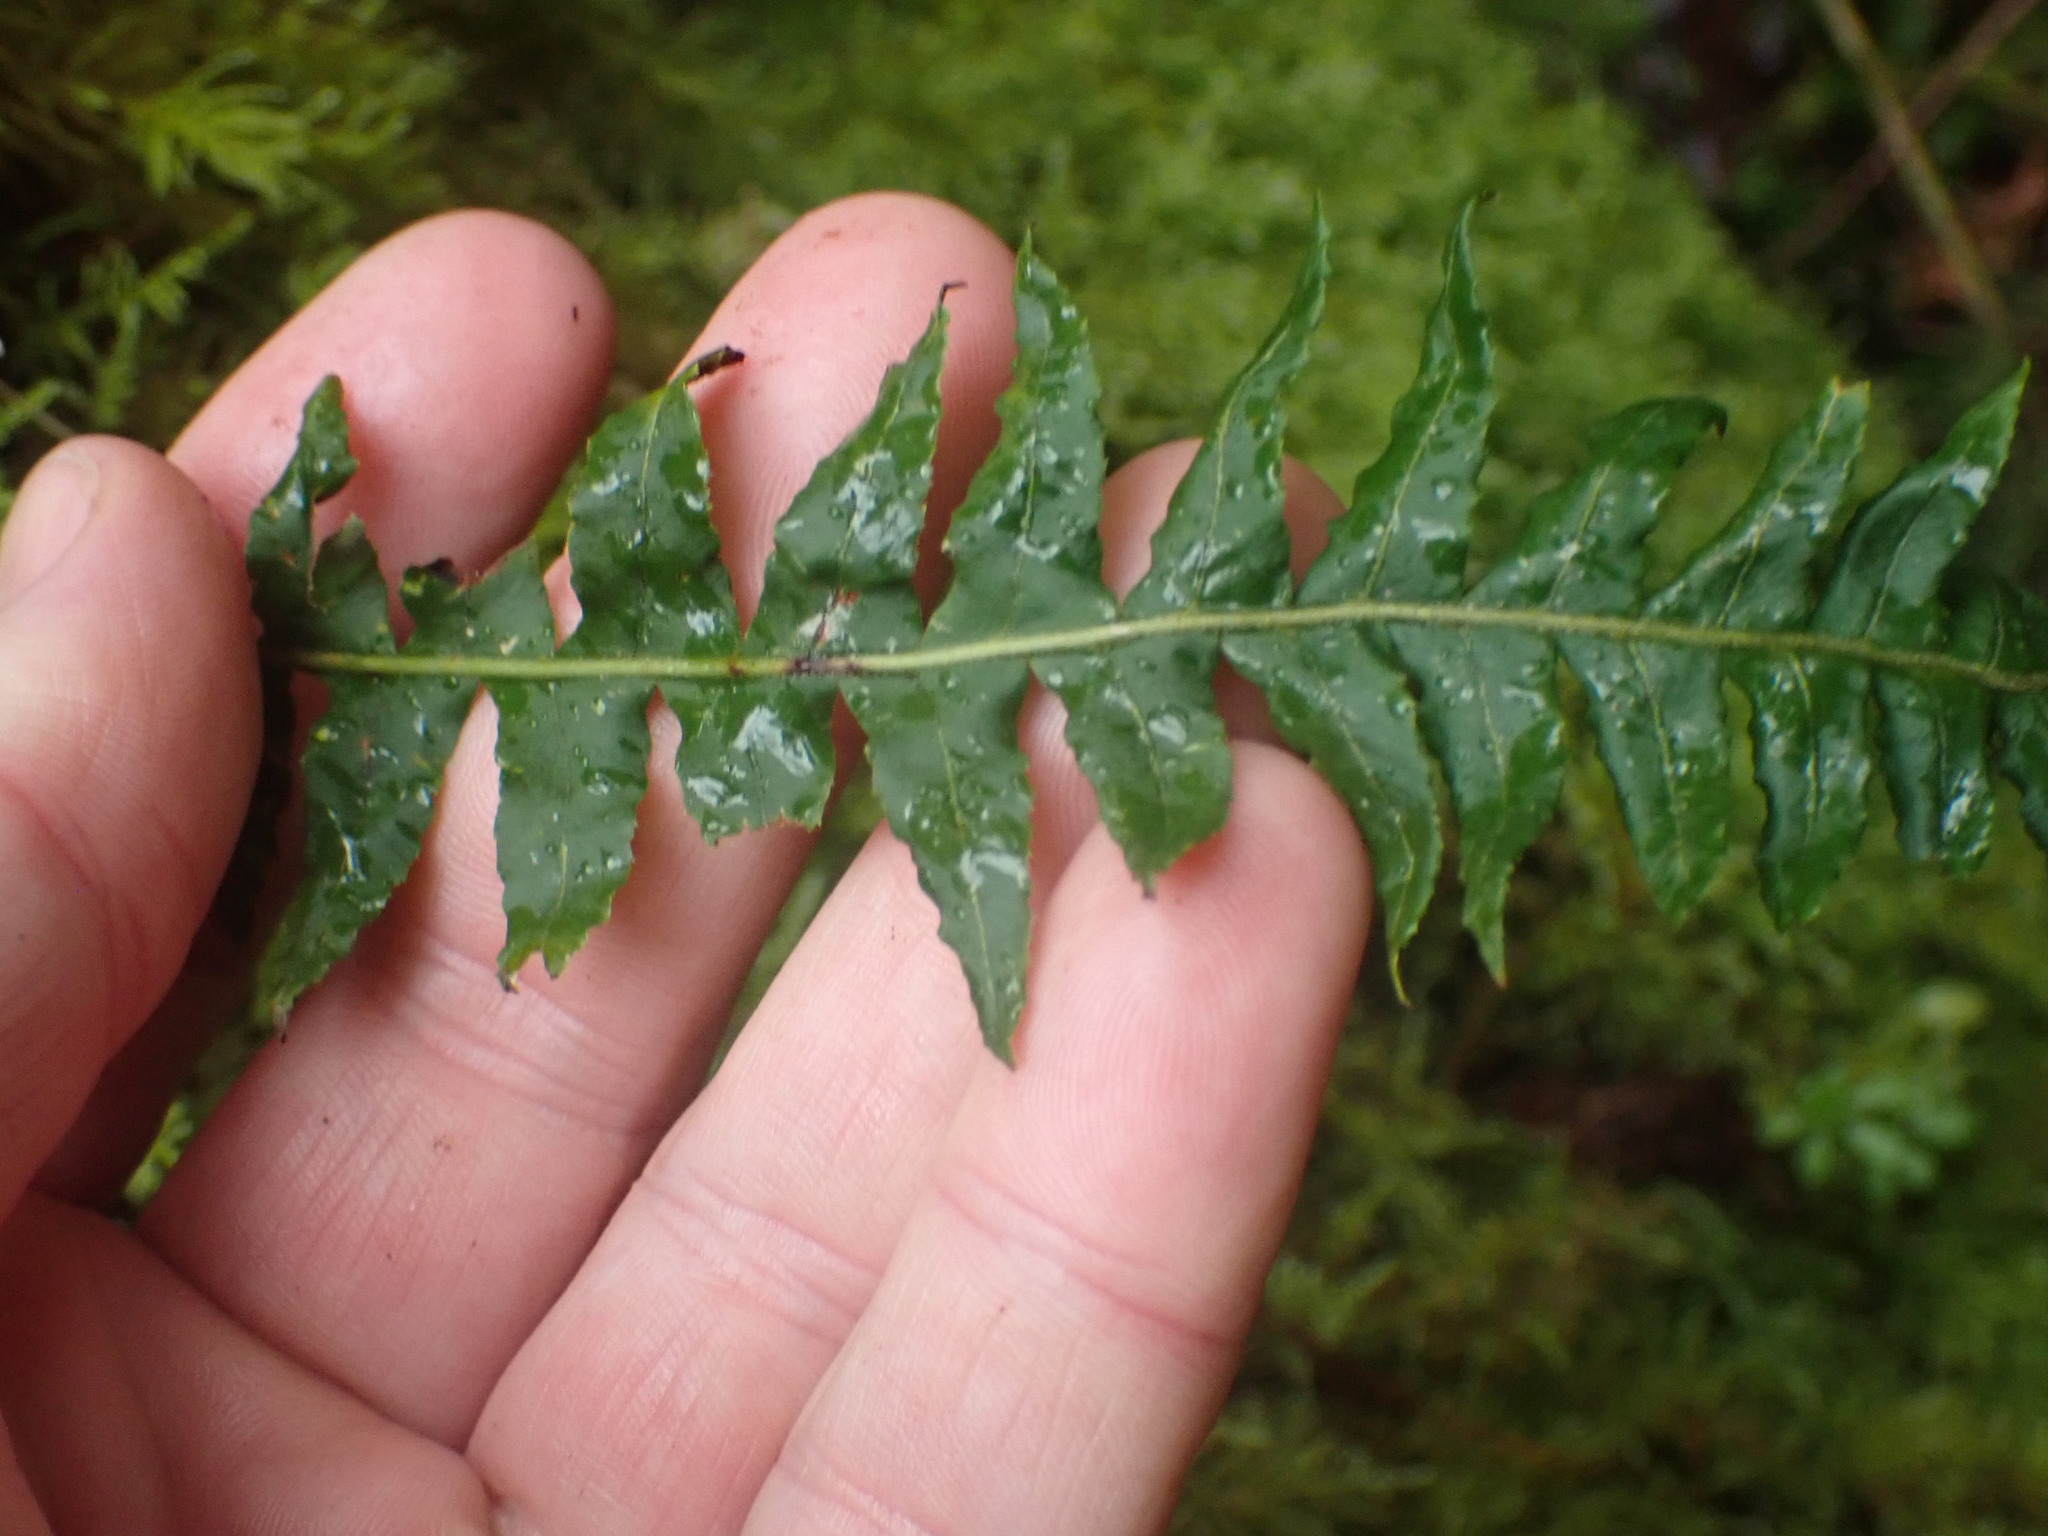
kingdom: Plantae
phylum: Tracheophyta
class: Polypodiopsida
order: Polypodiales
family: Polypodiaceae
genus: Polypodium
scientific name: Polypodium glycyrrhiza
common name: Licorice fern
